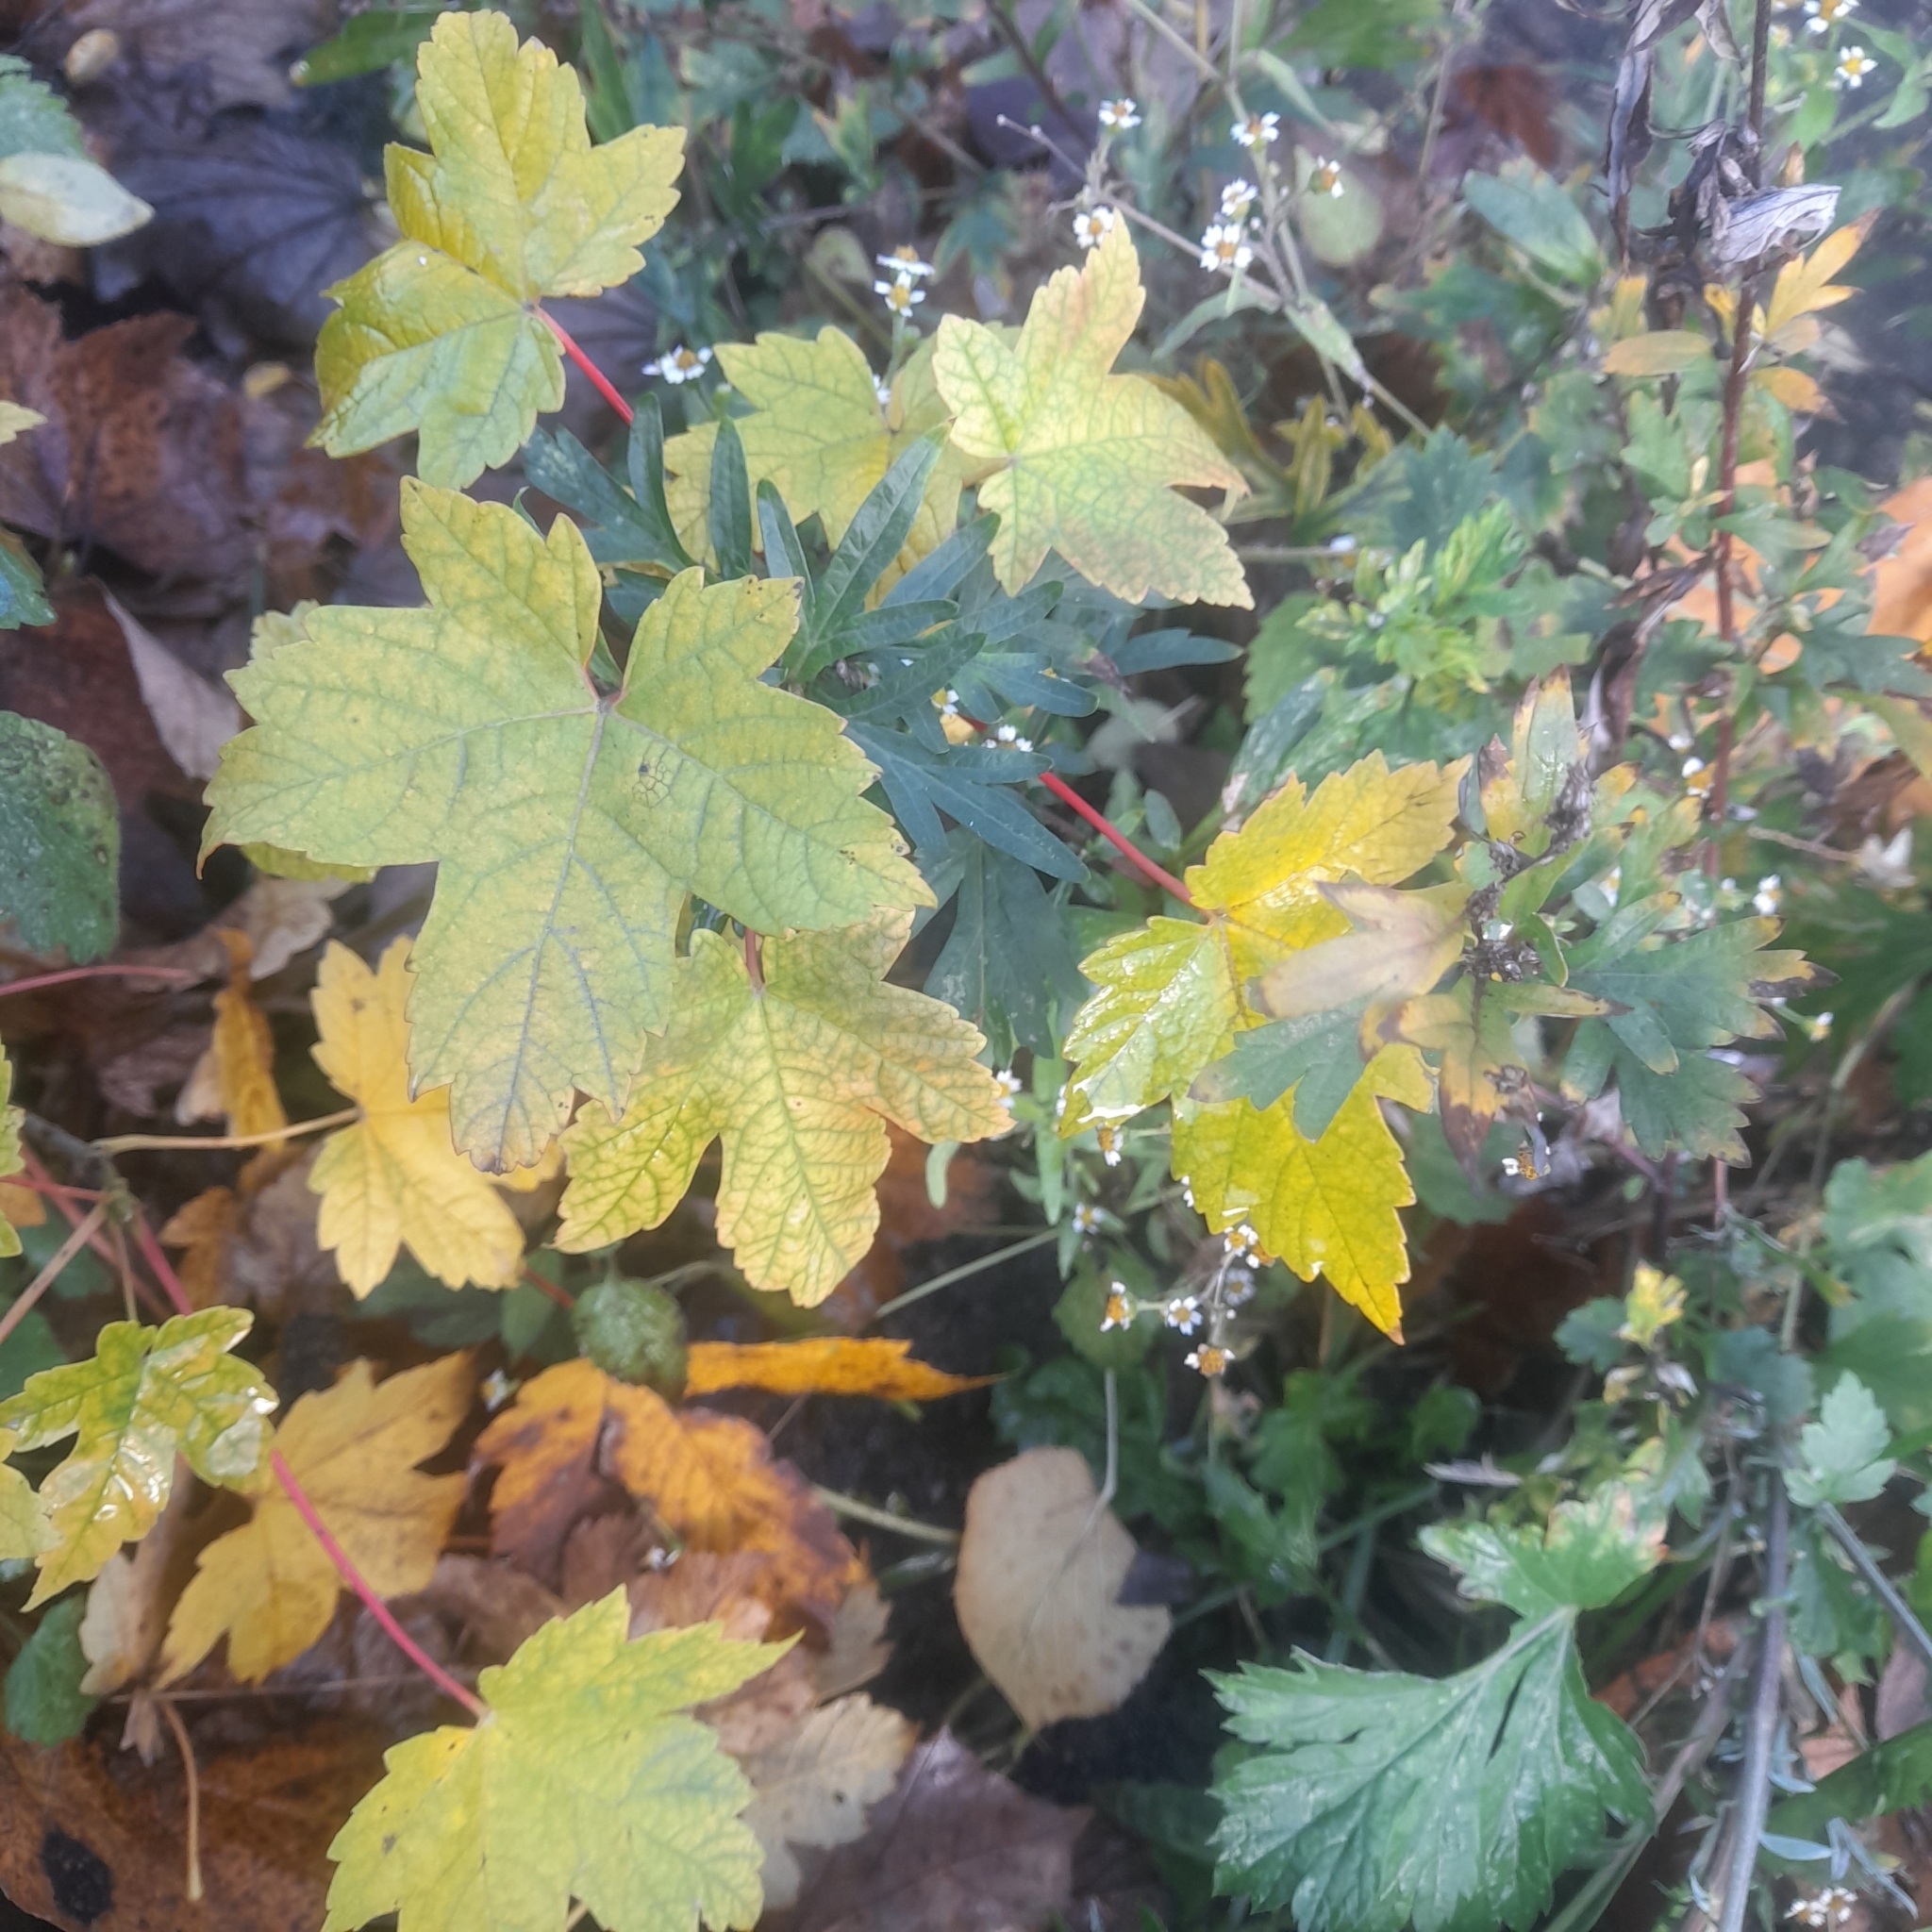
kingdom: Plantae
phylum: Tracheophyta
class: Magnoliopsida
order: Sapindales
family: Sapindaceae
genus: Acer
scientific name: Acer pseudoplatanus
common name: Sycamore
